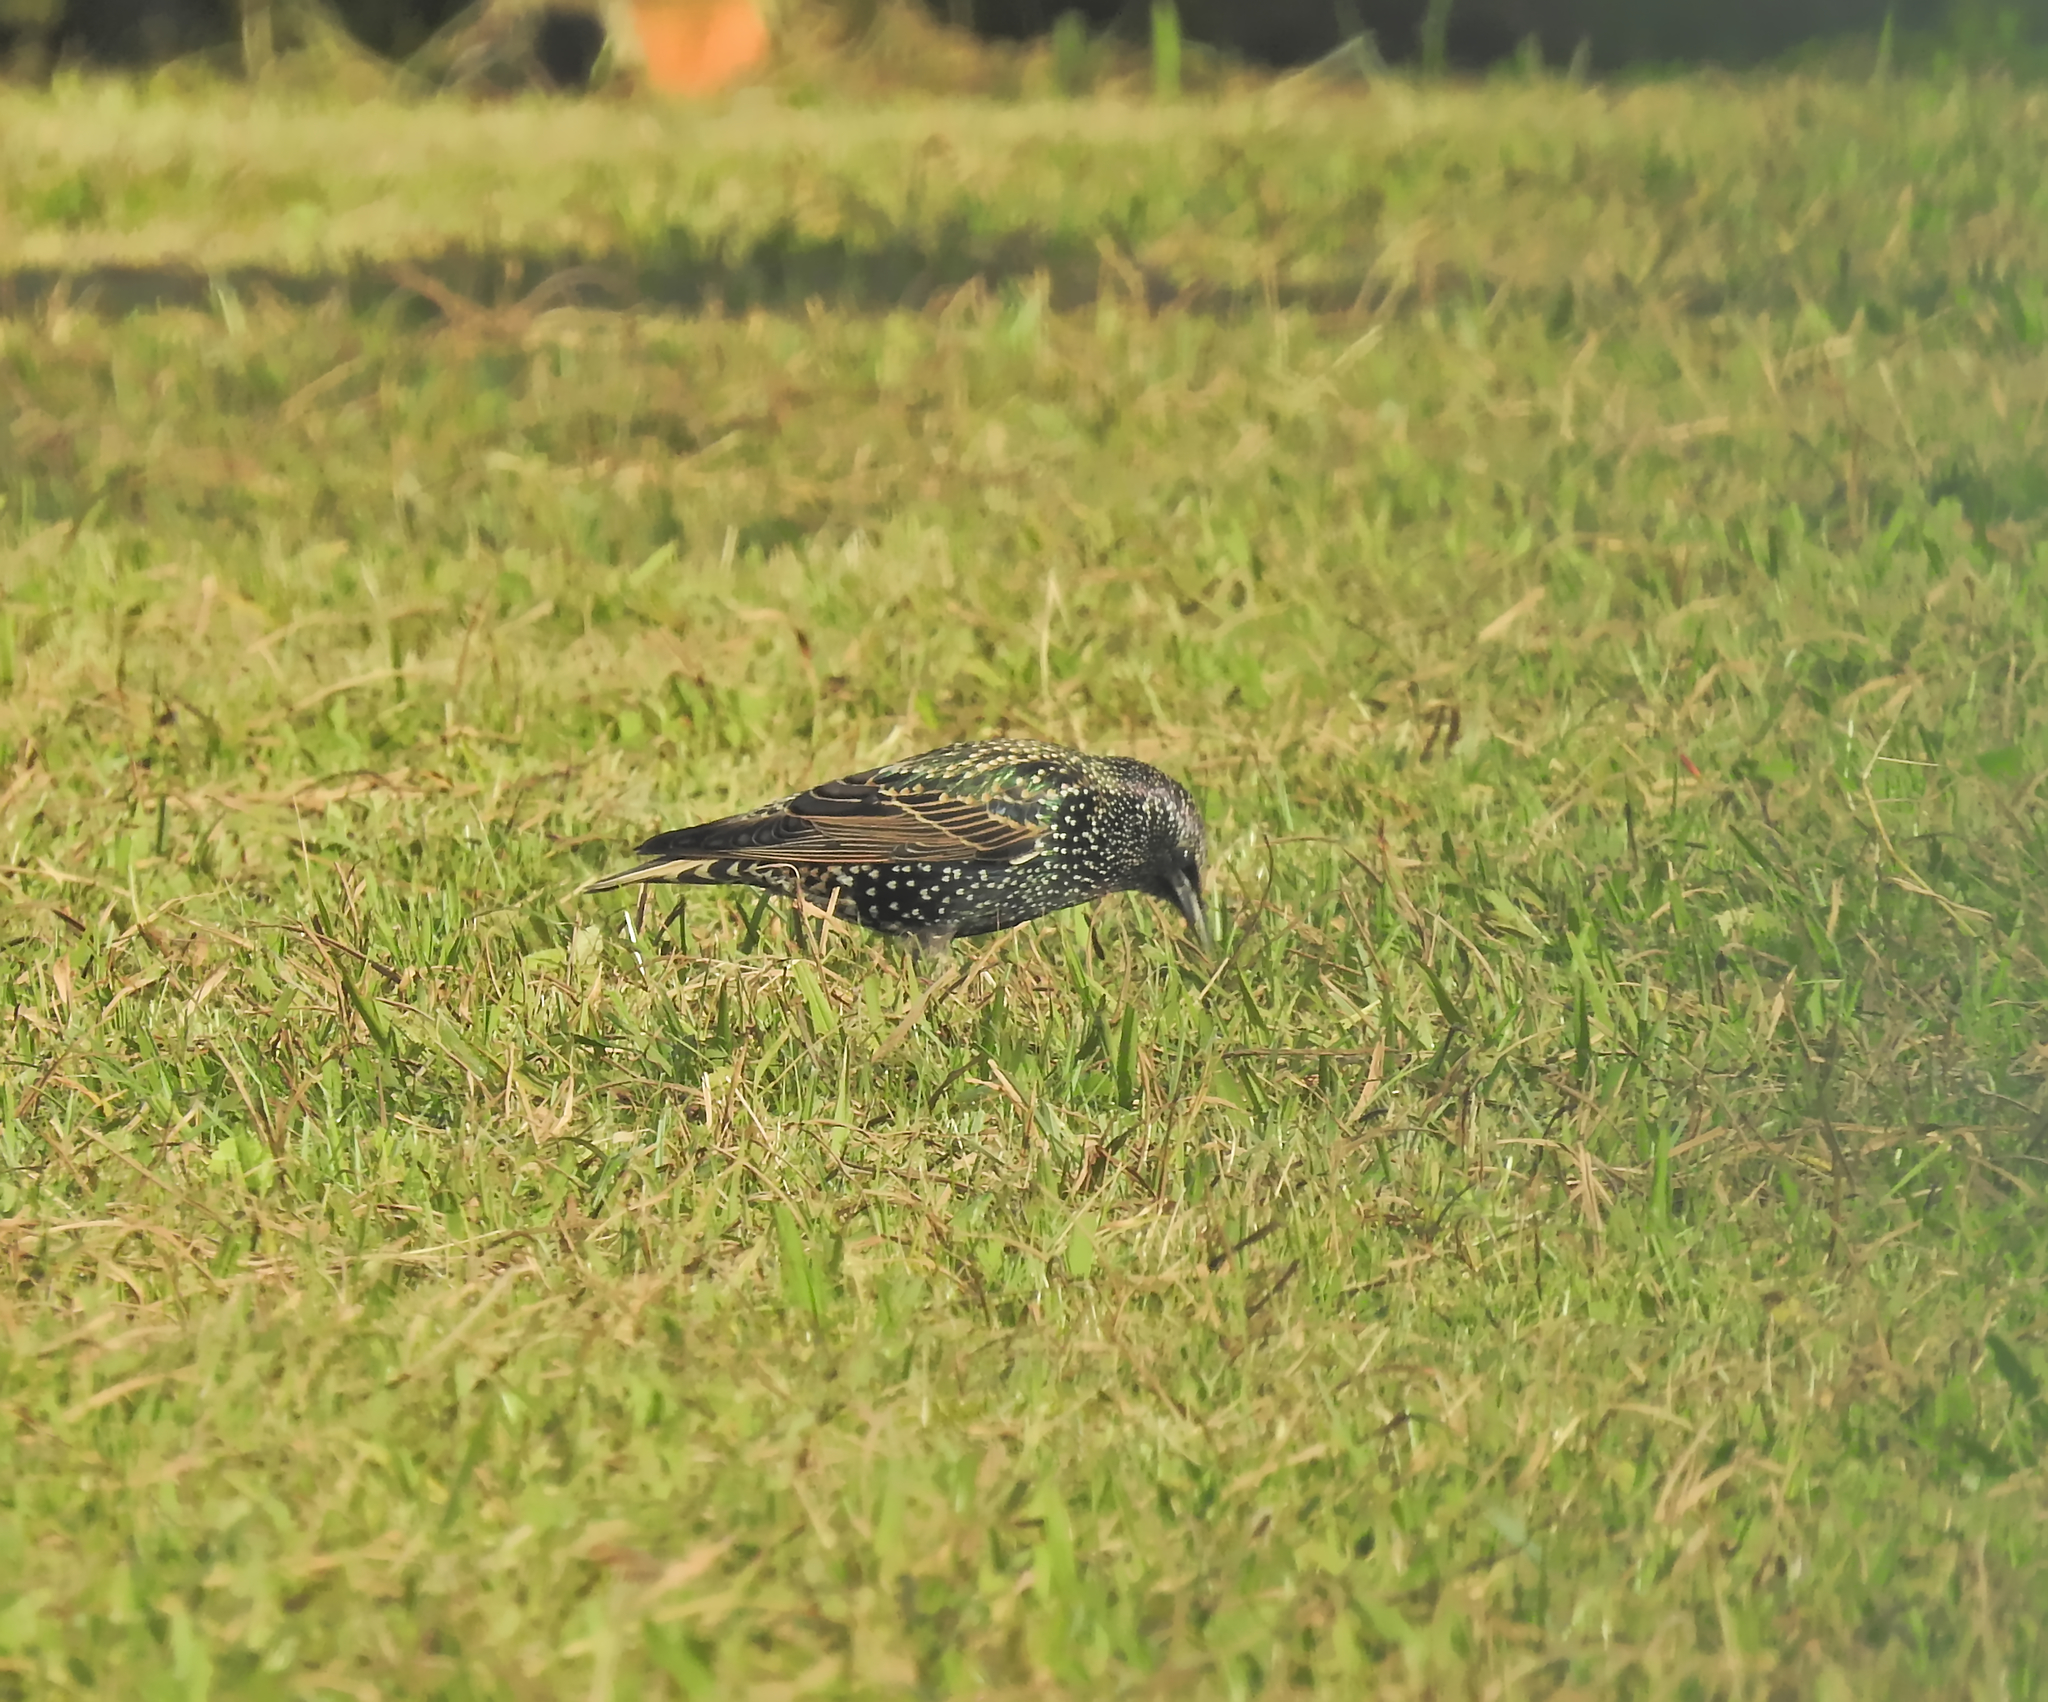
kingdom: Animalia
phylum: Chordata
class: Aves
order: Passeriformes
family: Sturnidae
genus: Sturnus
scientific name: Sturnus vulgaris
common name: Common starling
